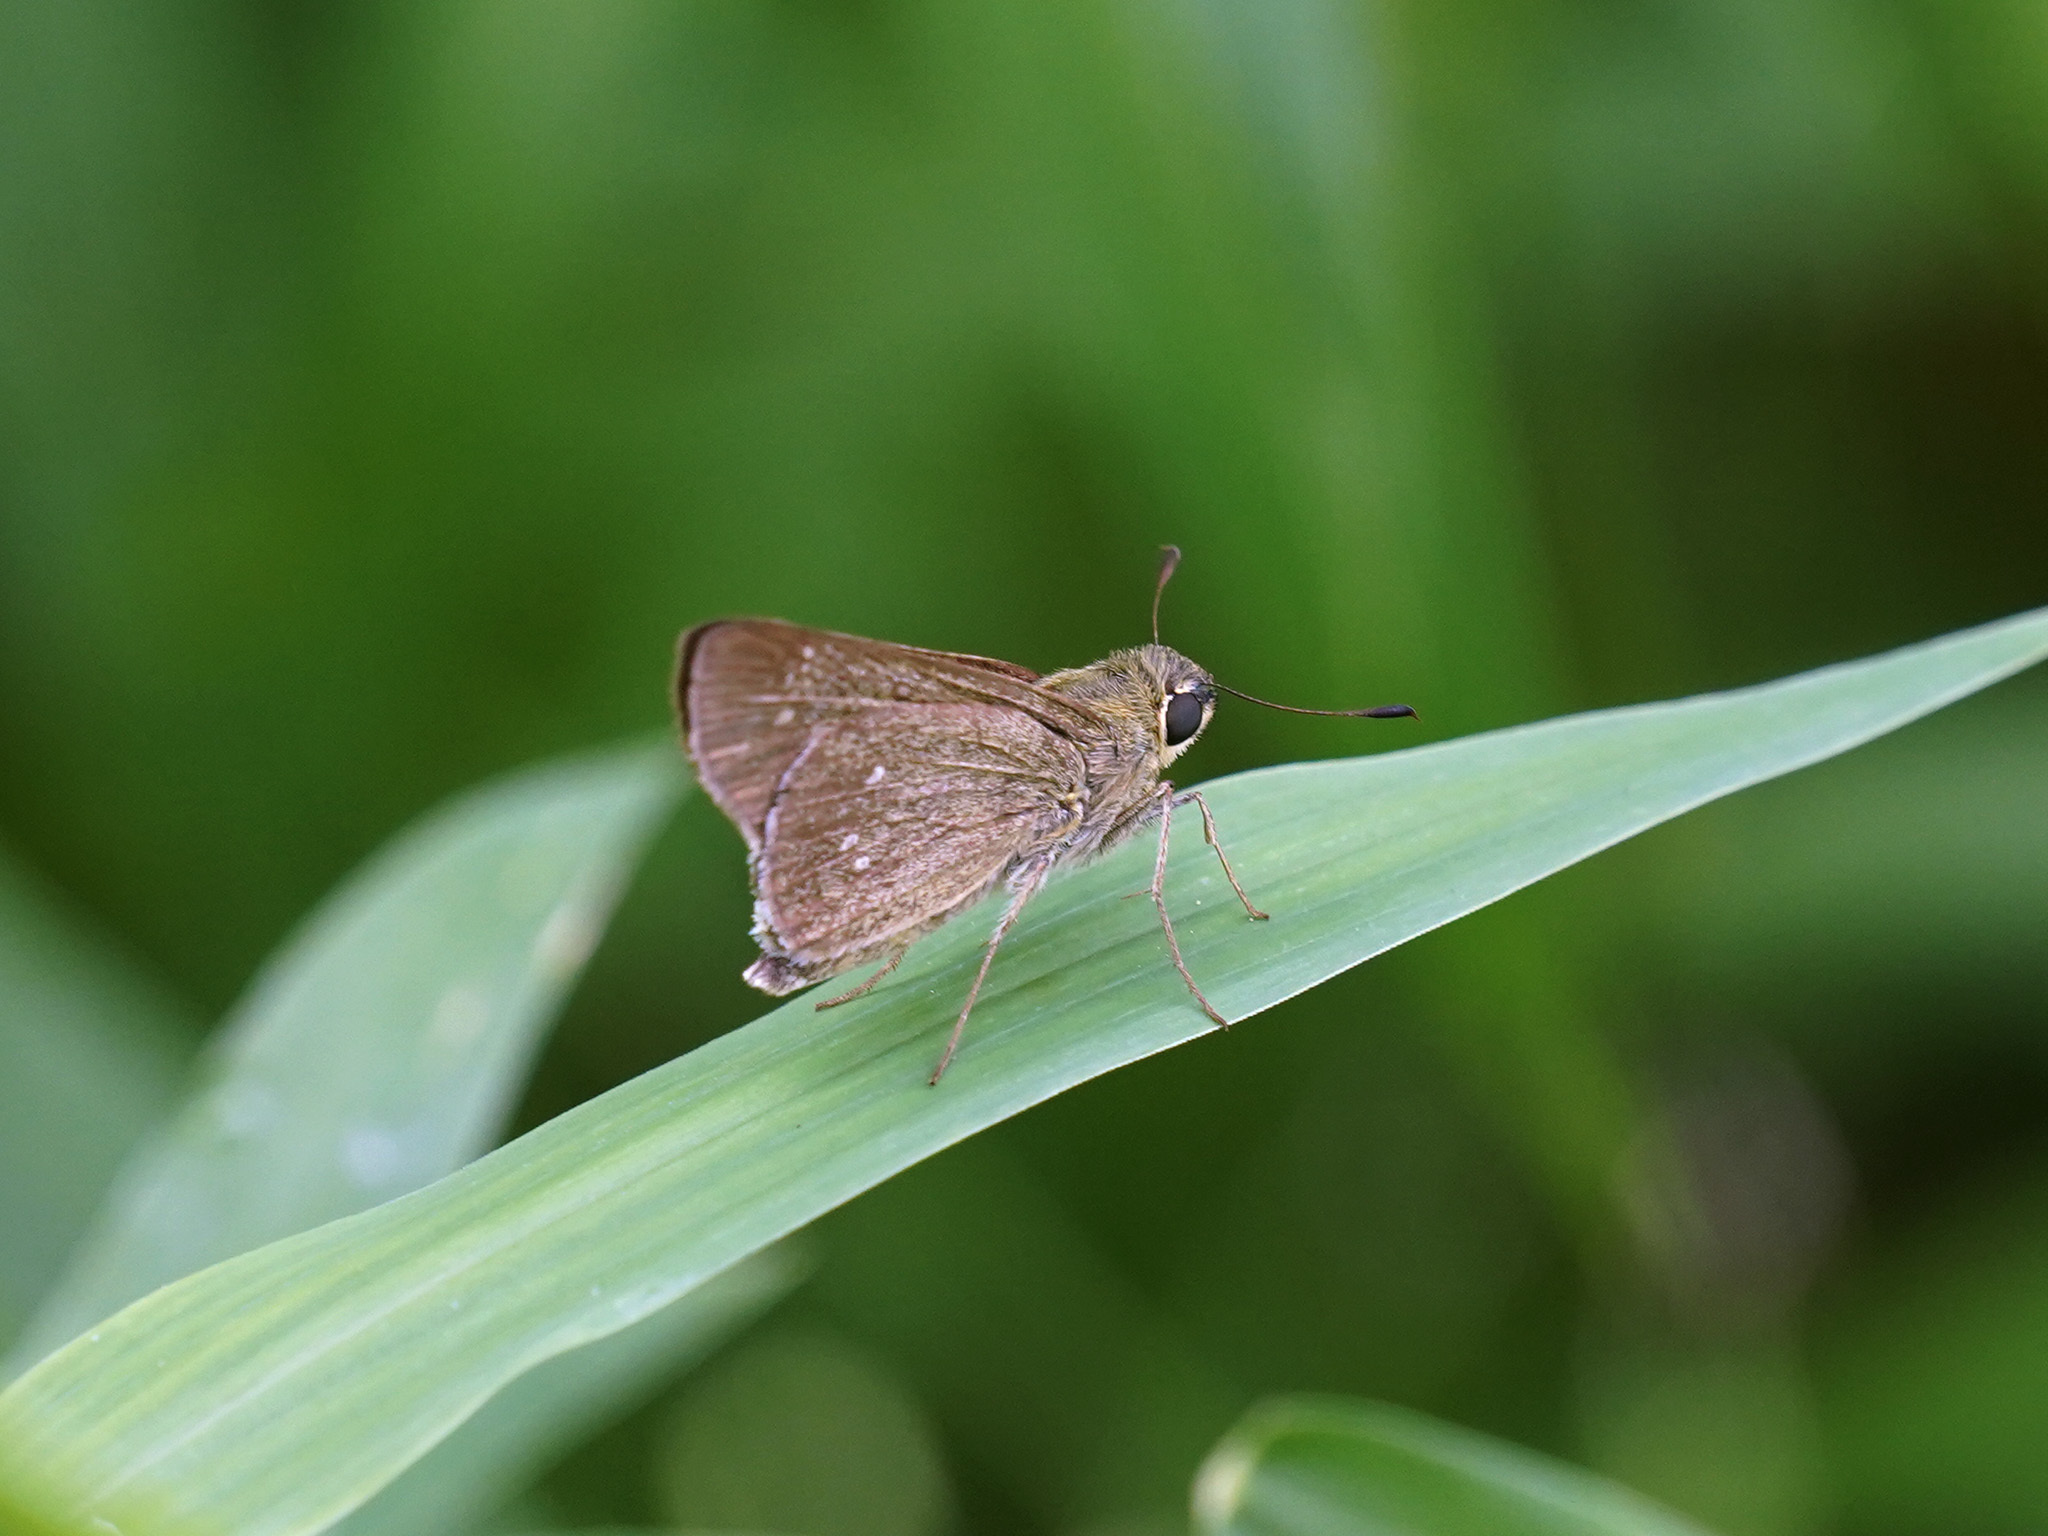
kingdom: Animalia
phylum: Arthropoda
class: Insecta
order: Lepidoptera
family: Hesperiidae
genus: Borbo
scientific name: Borbo cinnara
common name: Formosan swift
